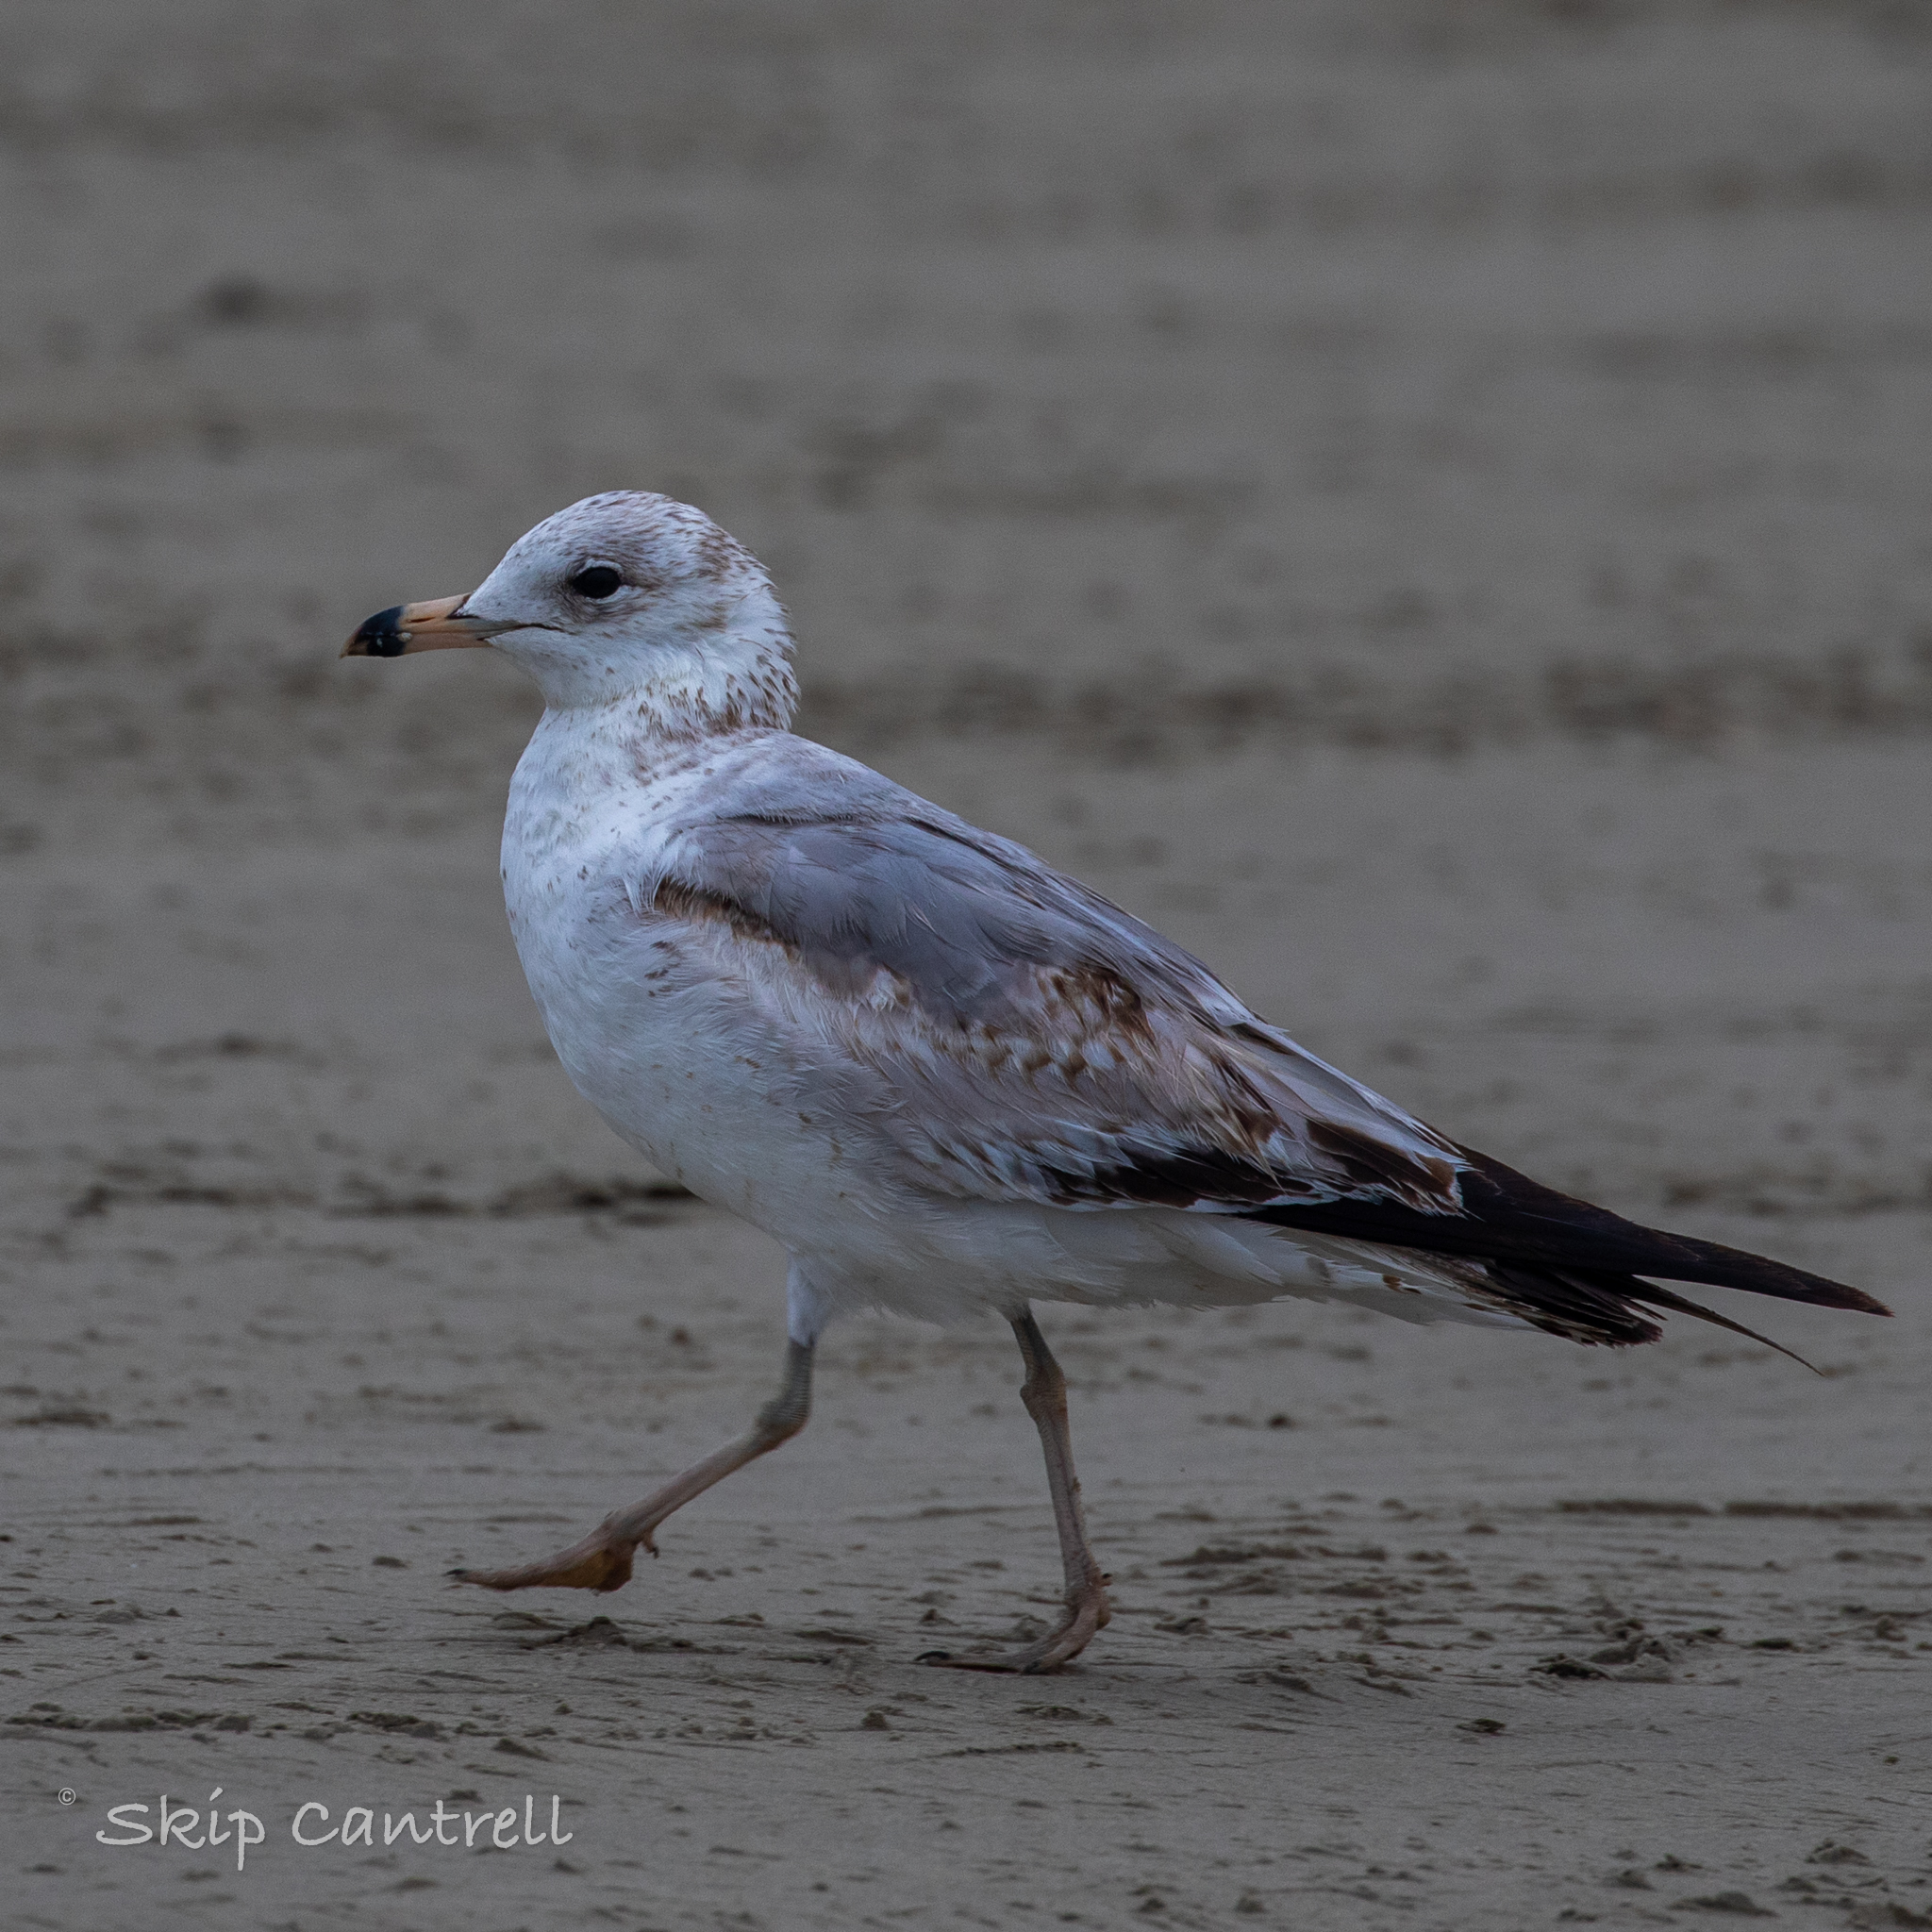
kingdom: Animalia
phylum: Chordata
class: Aves
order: Charadriiformes
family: Laridae
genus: Larus
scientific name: Larus delawarensis
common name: Ring-billed gull
